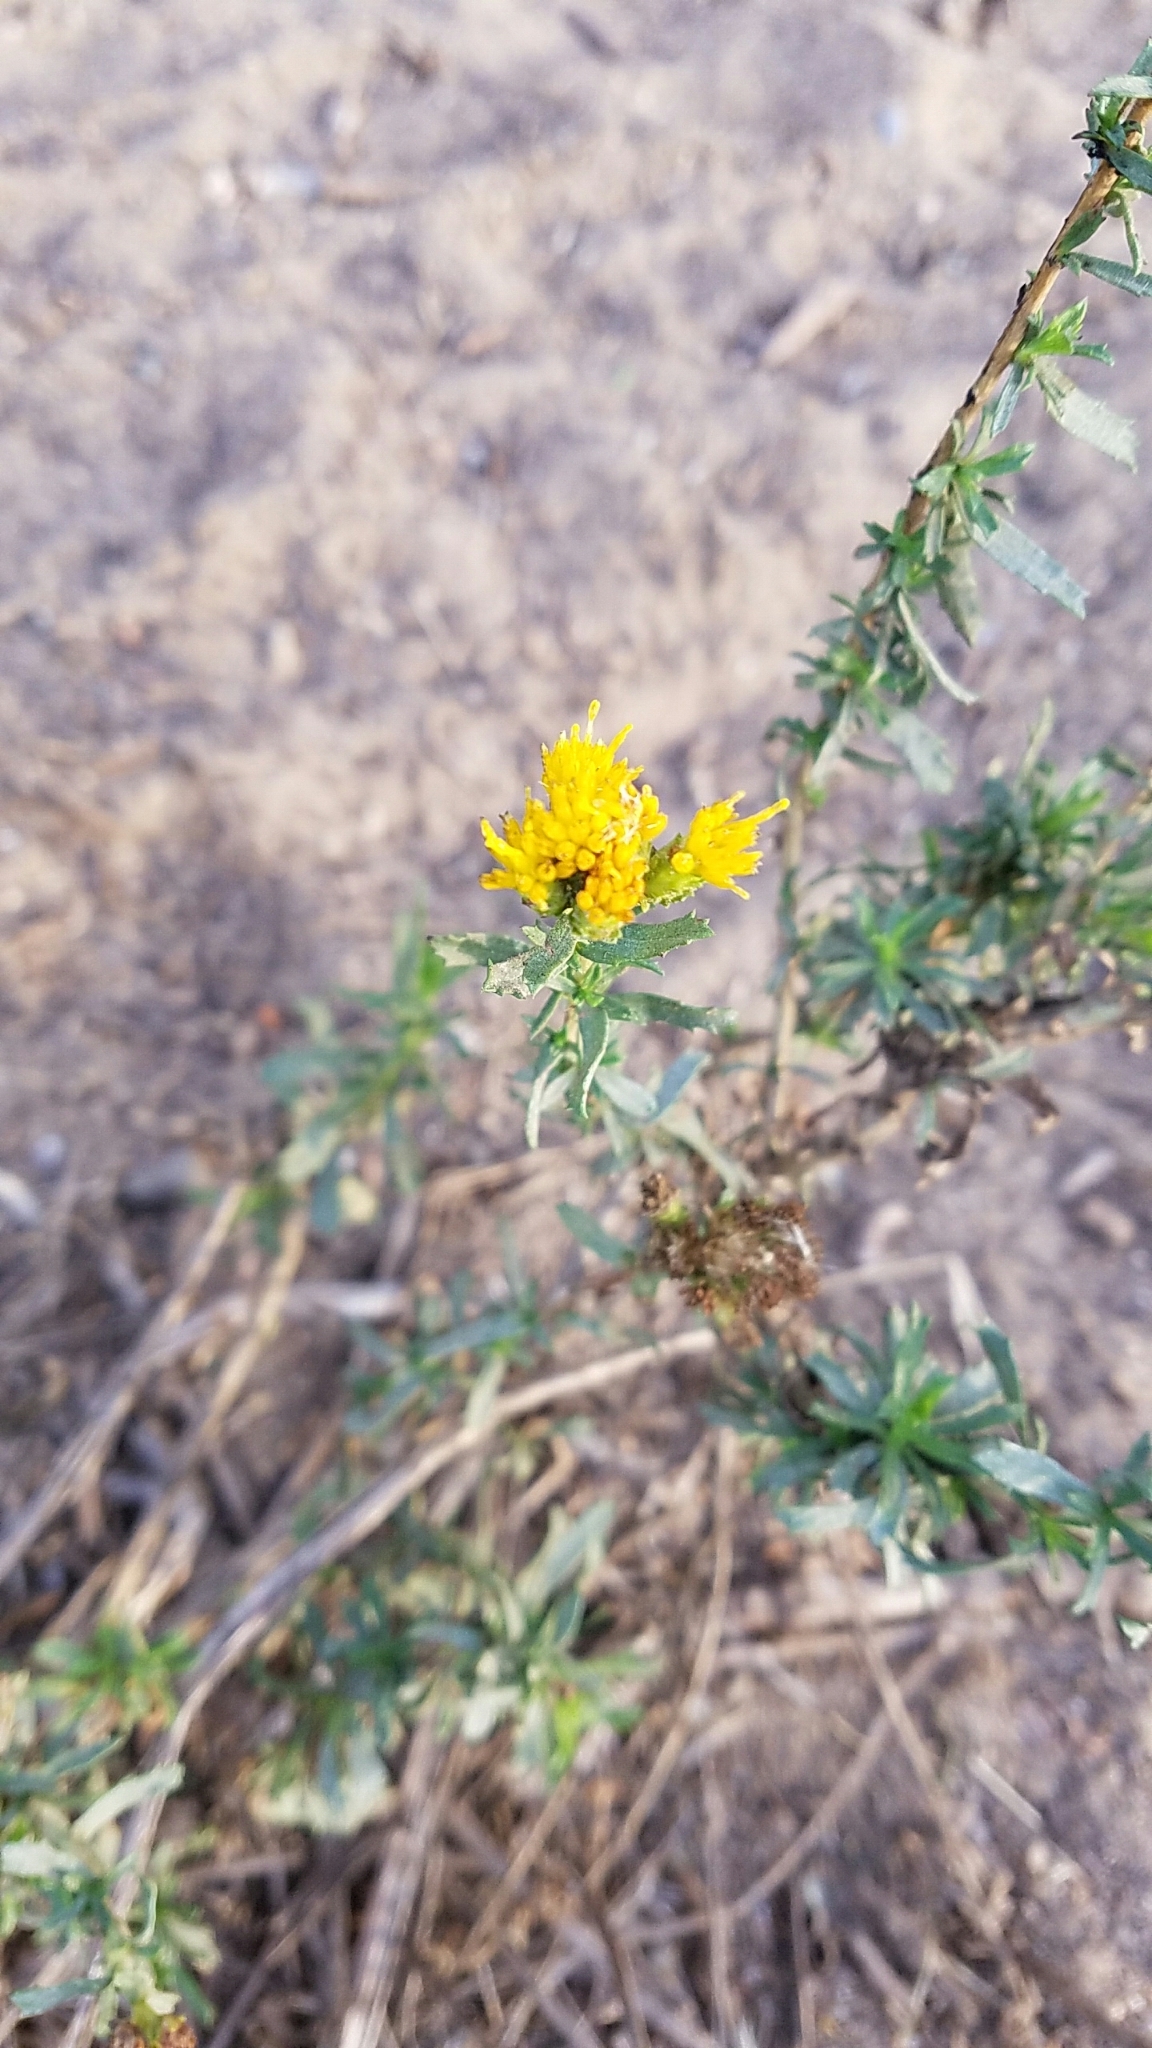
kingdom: Plantae
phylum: Tracheophyta
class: Magnoliopsida
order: Asterales
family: Asteraceae
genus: Isocoma
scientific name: Isocoma menziesii
